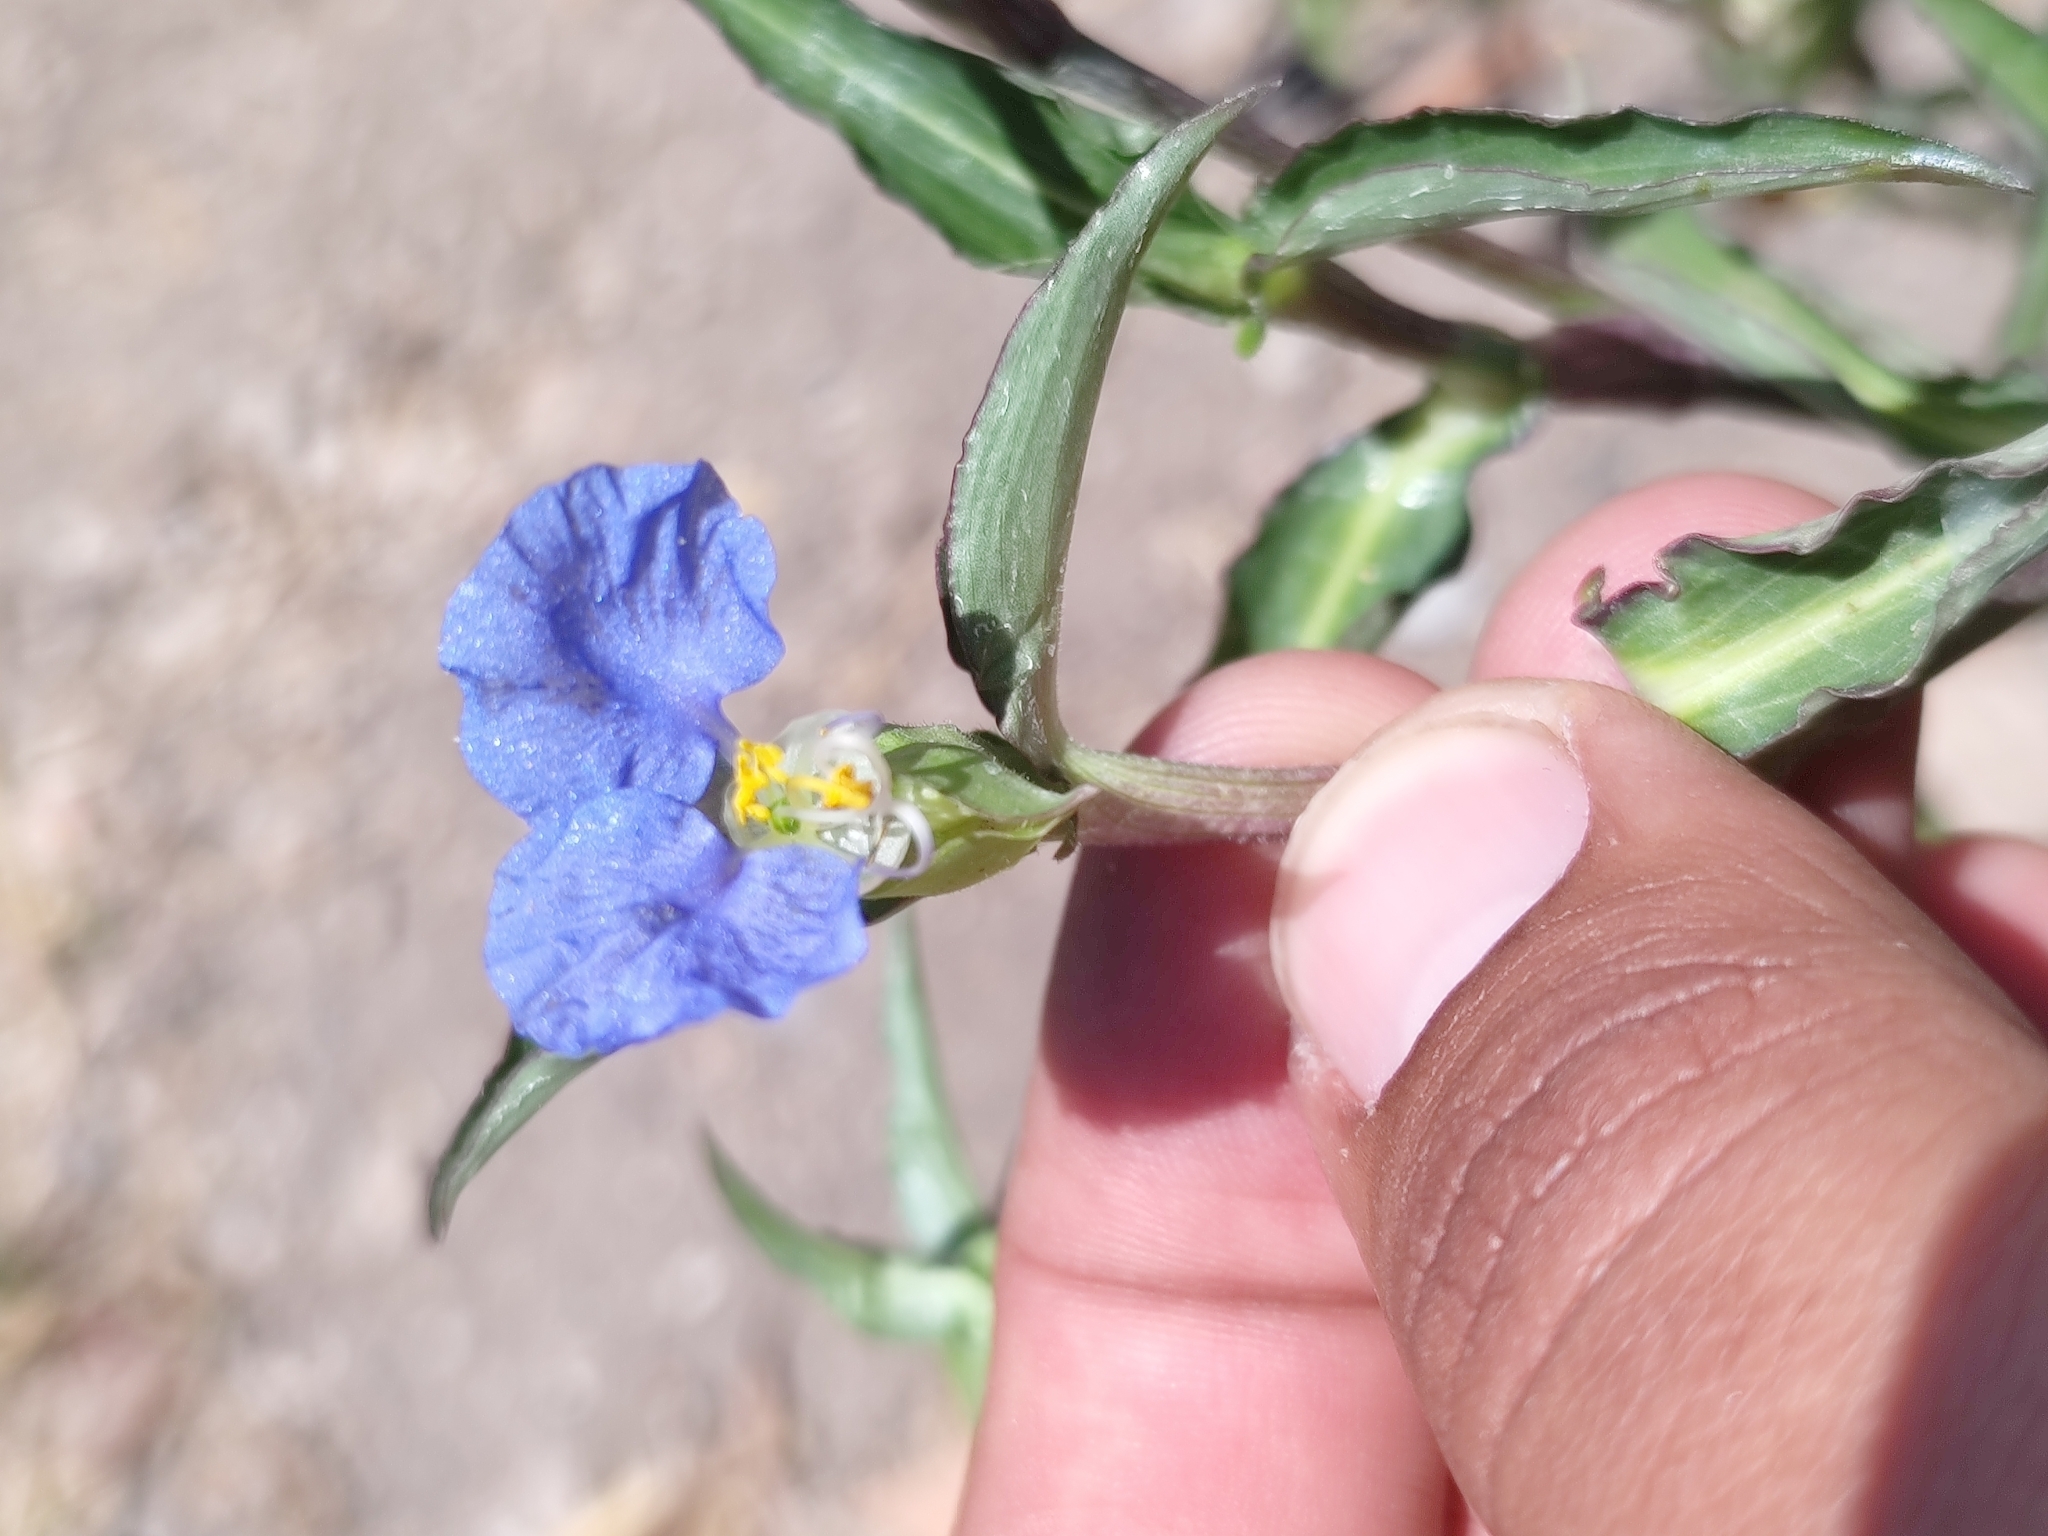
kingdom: Plantae
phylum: Tracheophyta
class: Liliopsida
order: Commelinales
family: Commelinaceae
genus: Commelina
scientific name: Commelina erecta
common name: Blousel blommetjie
